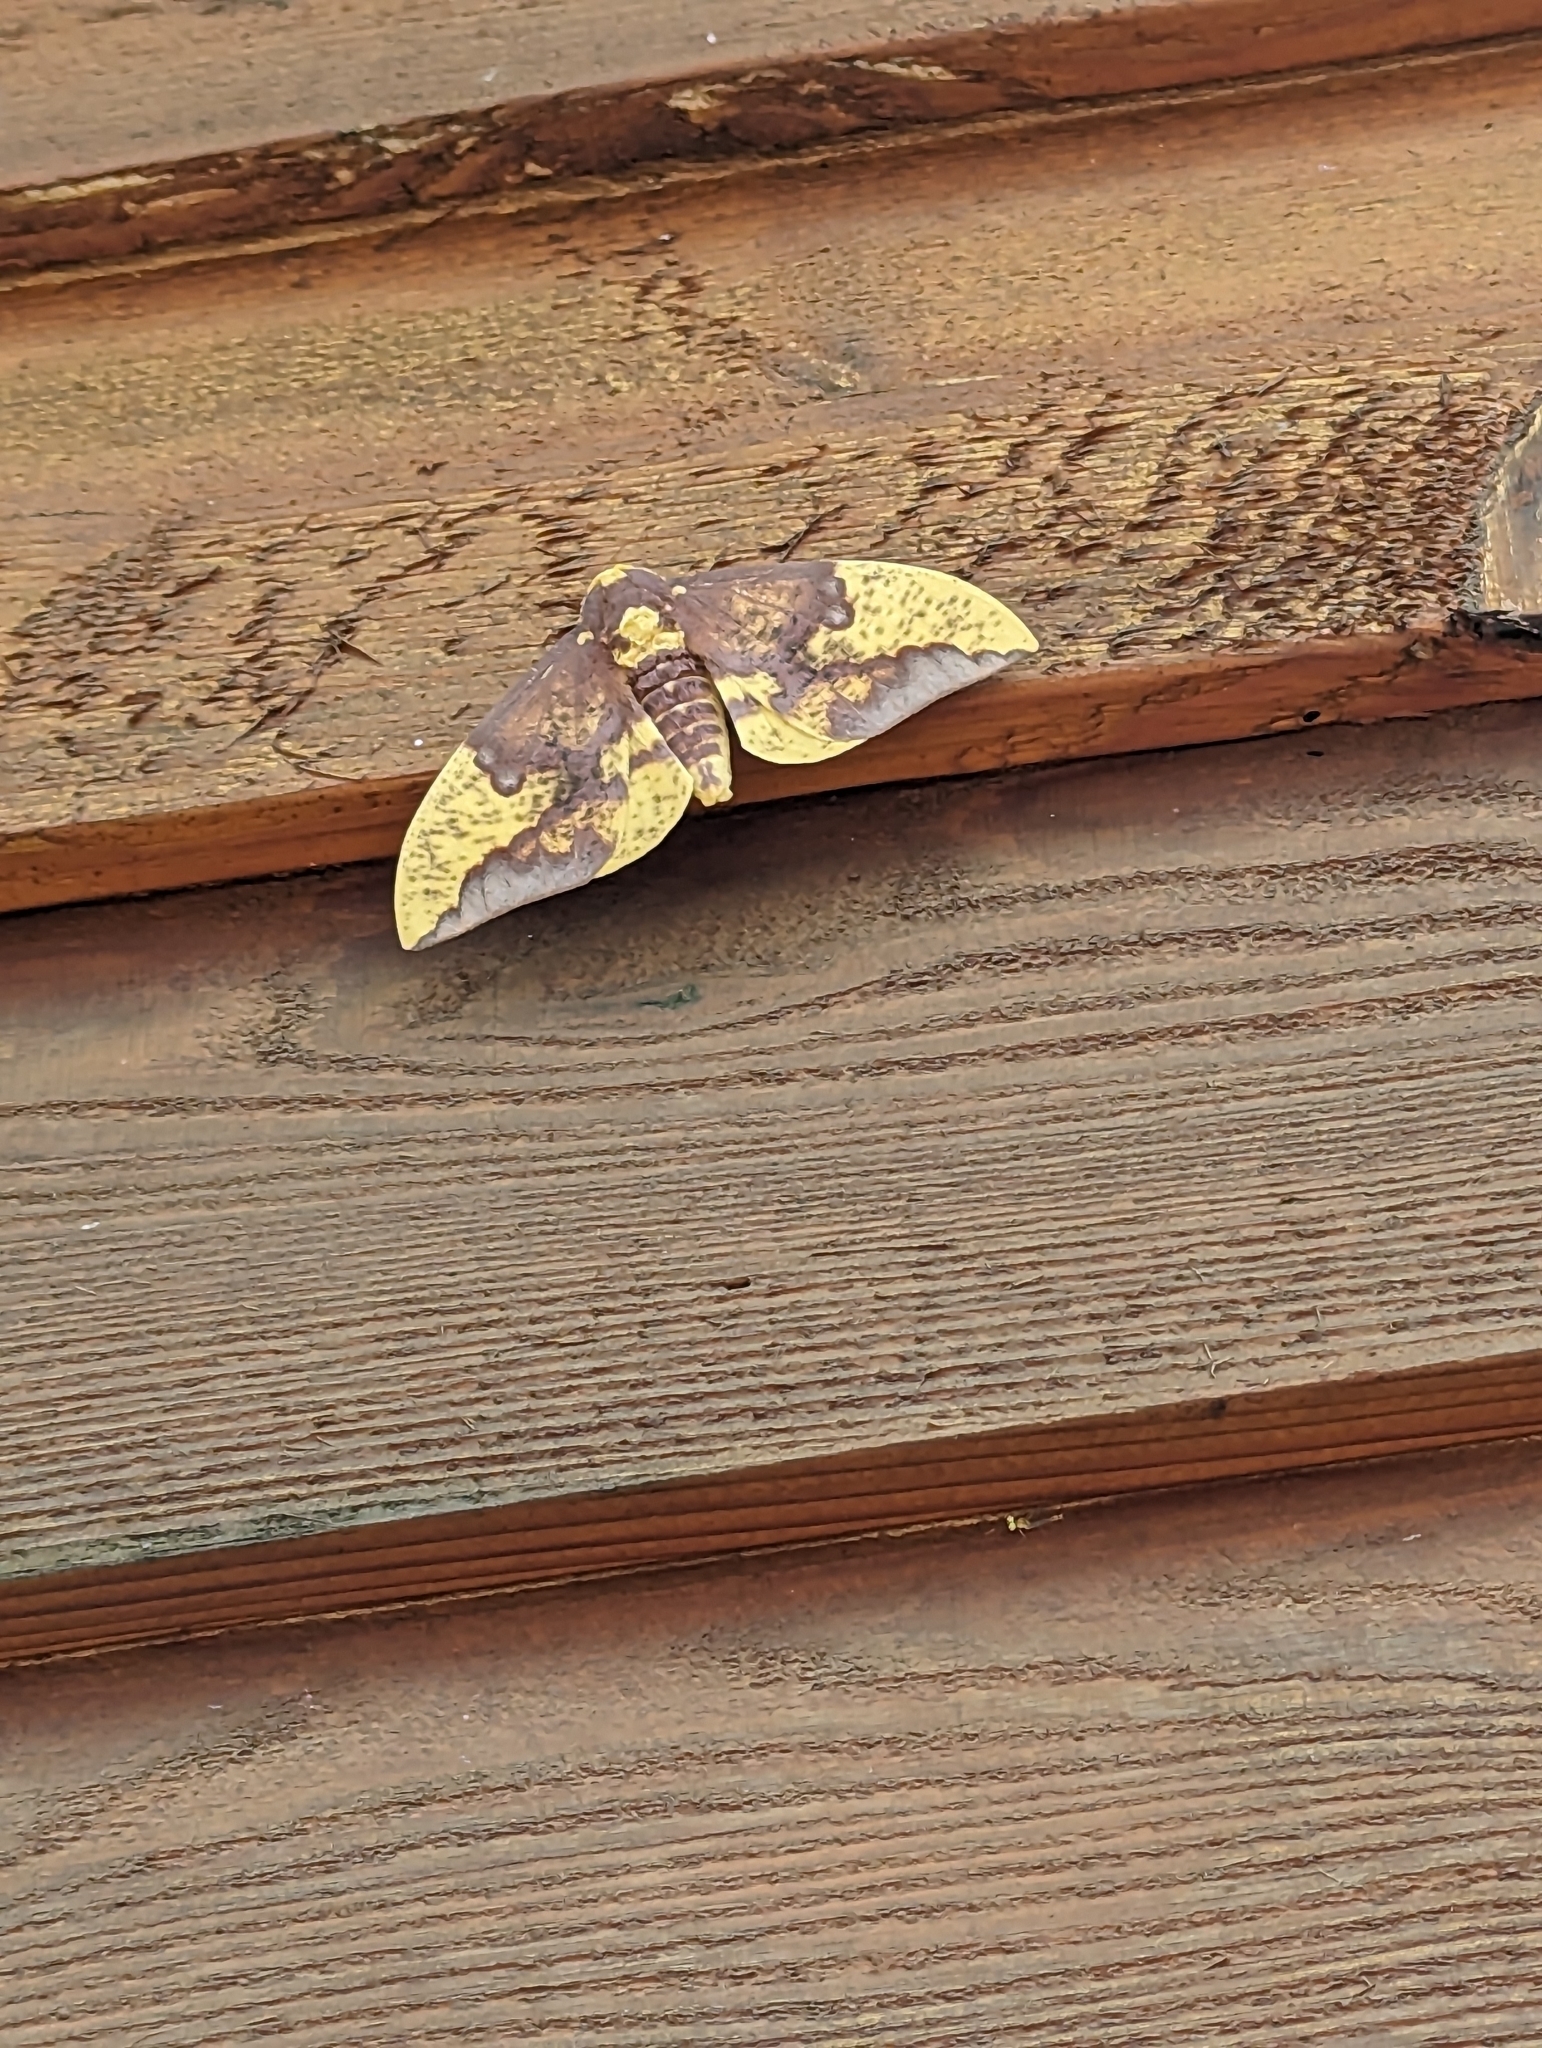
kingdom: Animalia
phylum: Arthropoda
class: Insecta
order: Lepidoptera
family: Saturniidae
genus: Eacles
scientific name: Eacles imperialis
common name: Imperial moth
